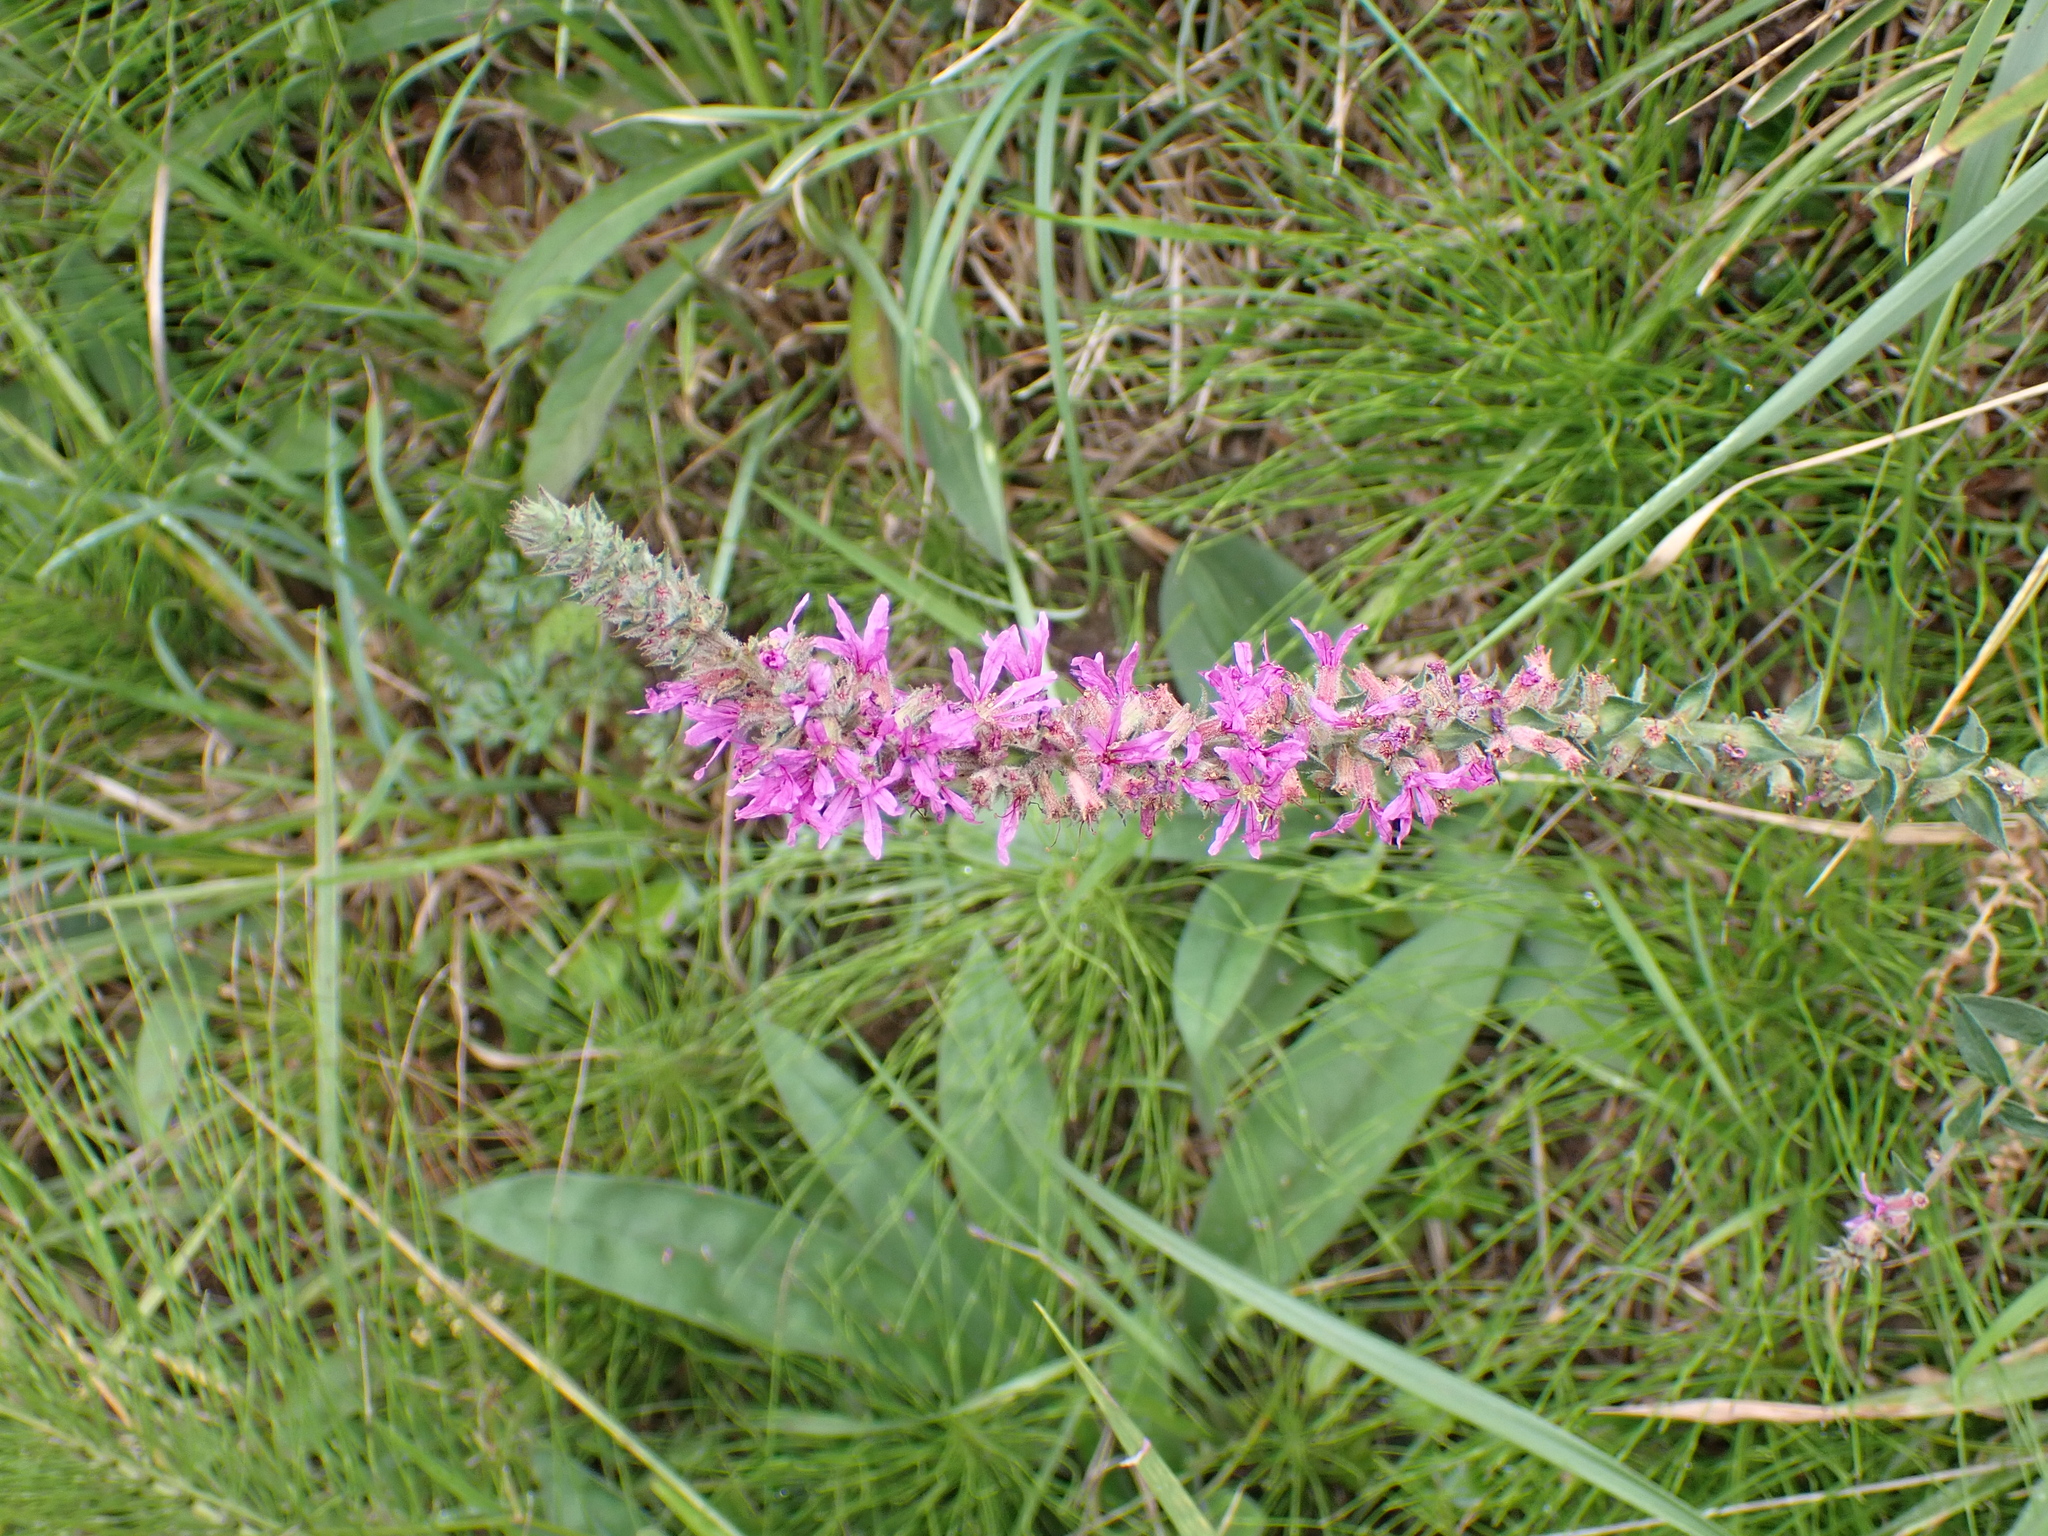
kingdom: Plantae
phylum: Tracheophyta
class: Magnoliopsida
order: Myrtales
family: Lythraceae
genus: Lythrum
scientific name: Lythrum salicaria
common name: Purple loosestrife
